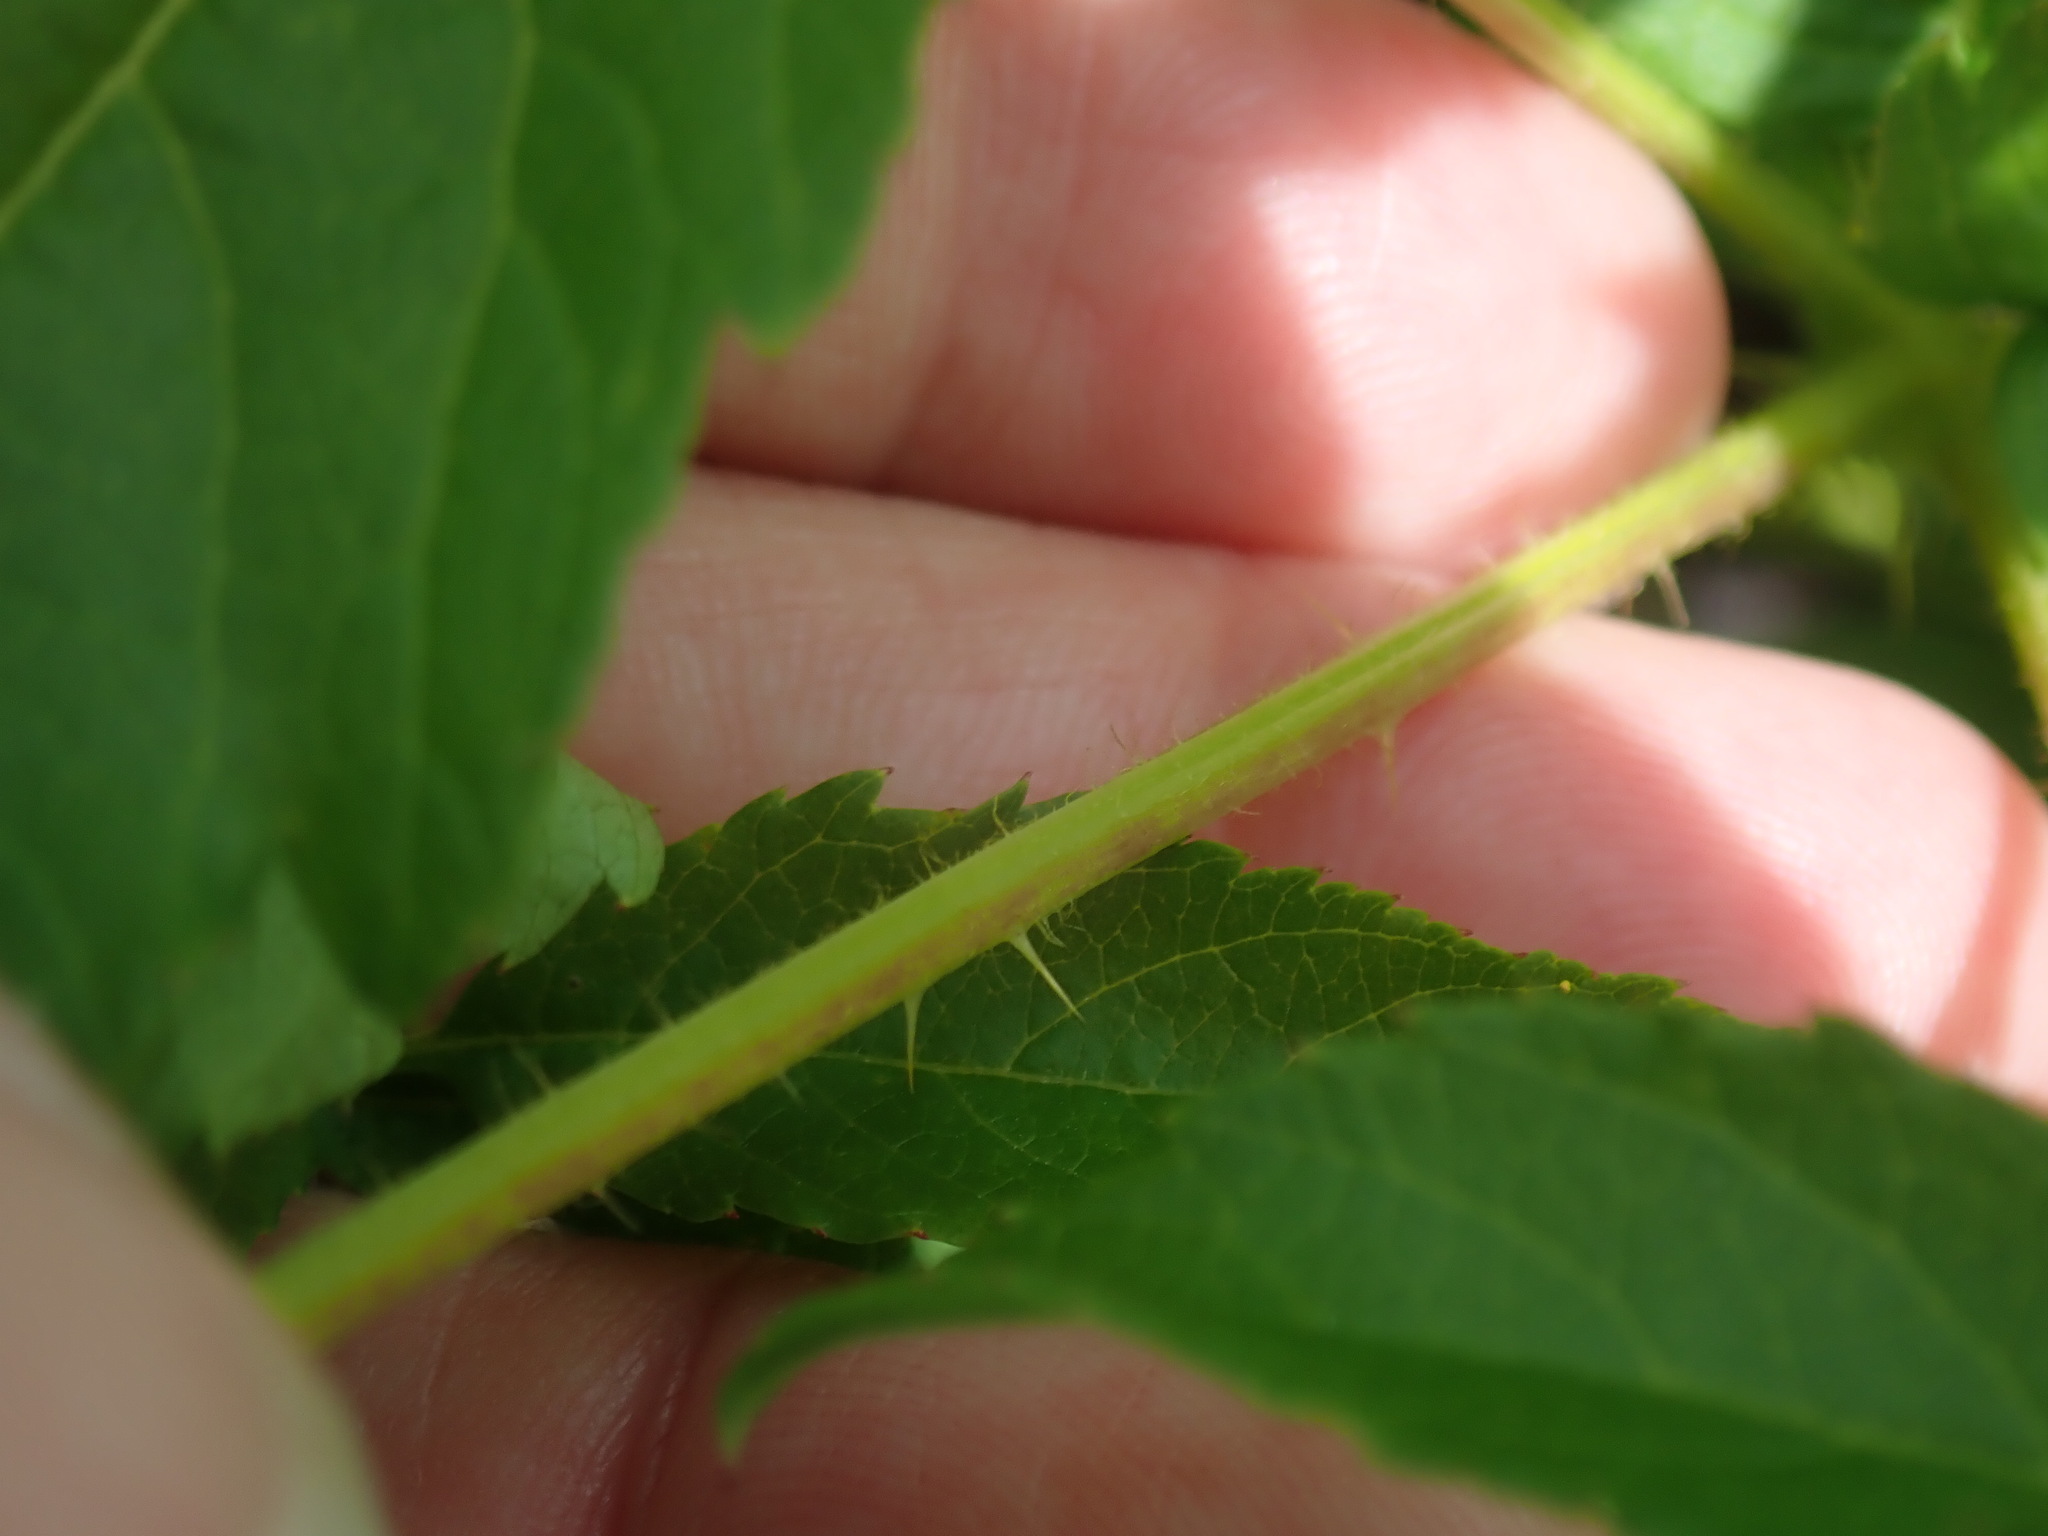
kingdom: Plantae
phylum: Tracheophyta
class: Magnoliopsida
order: Apiales
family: Araliaceae
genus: Aralia
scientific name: Aralia hispida
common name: Bristly sarsaparilla
